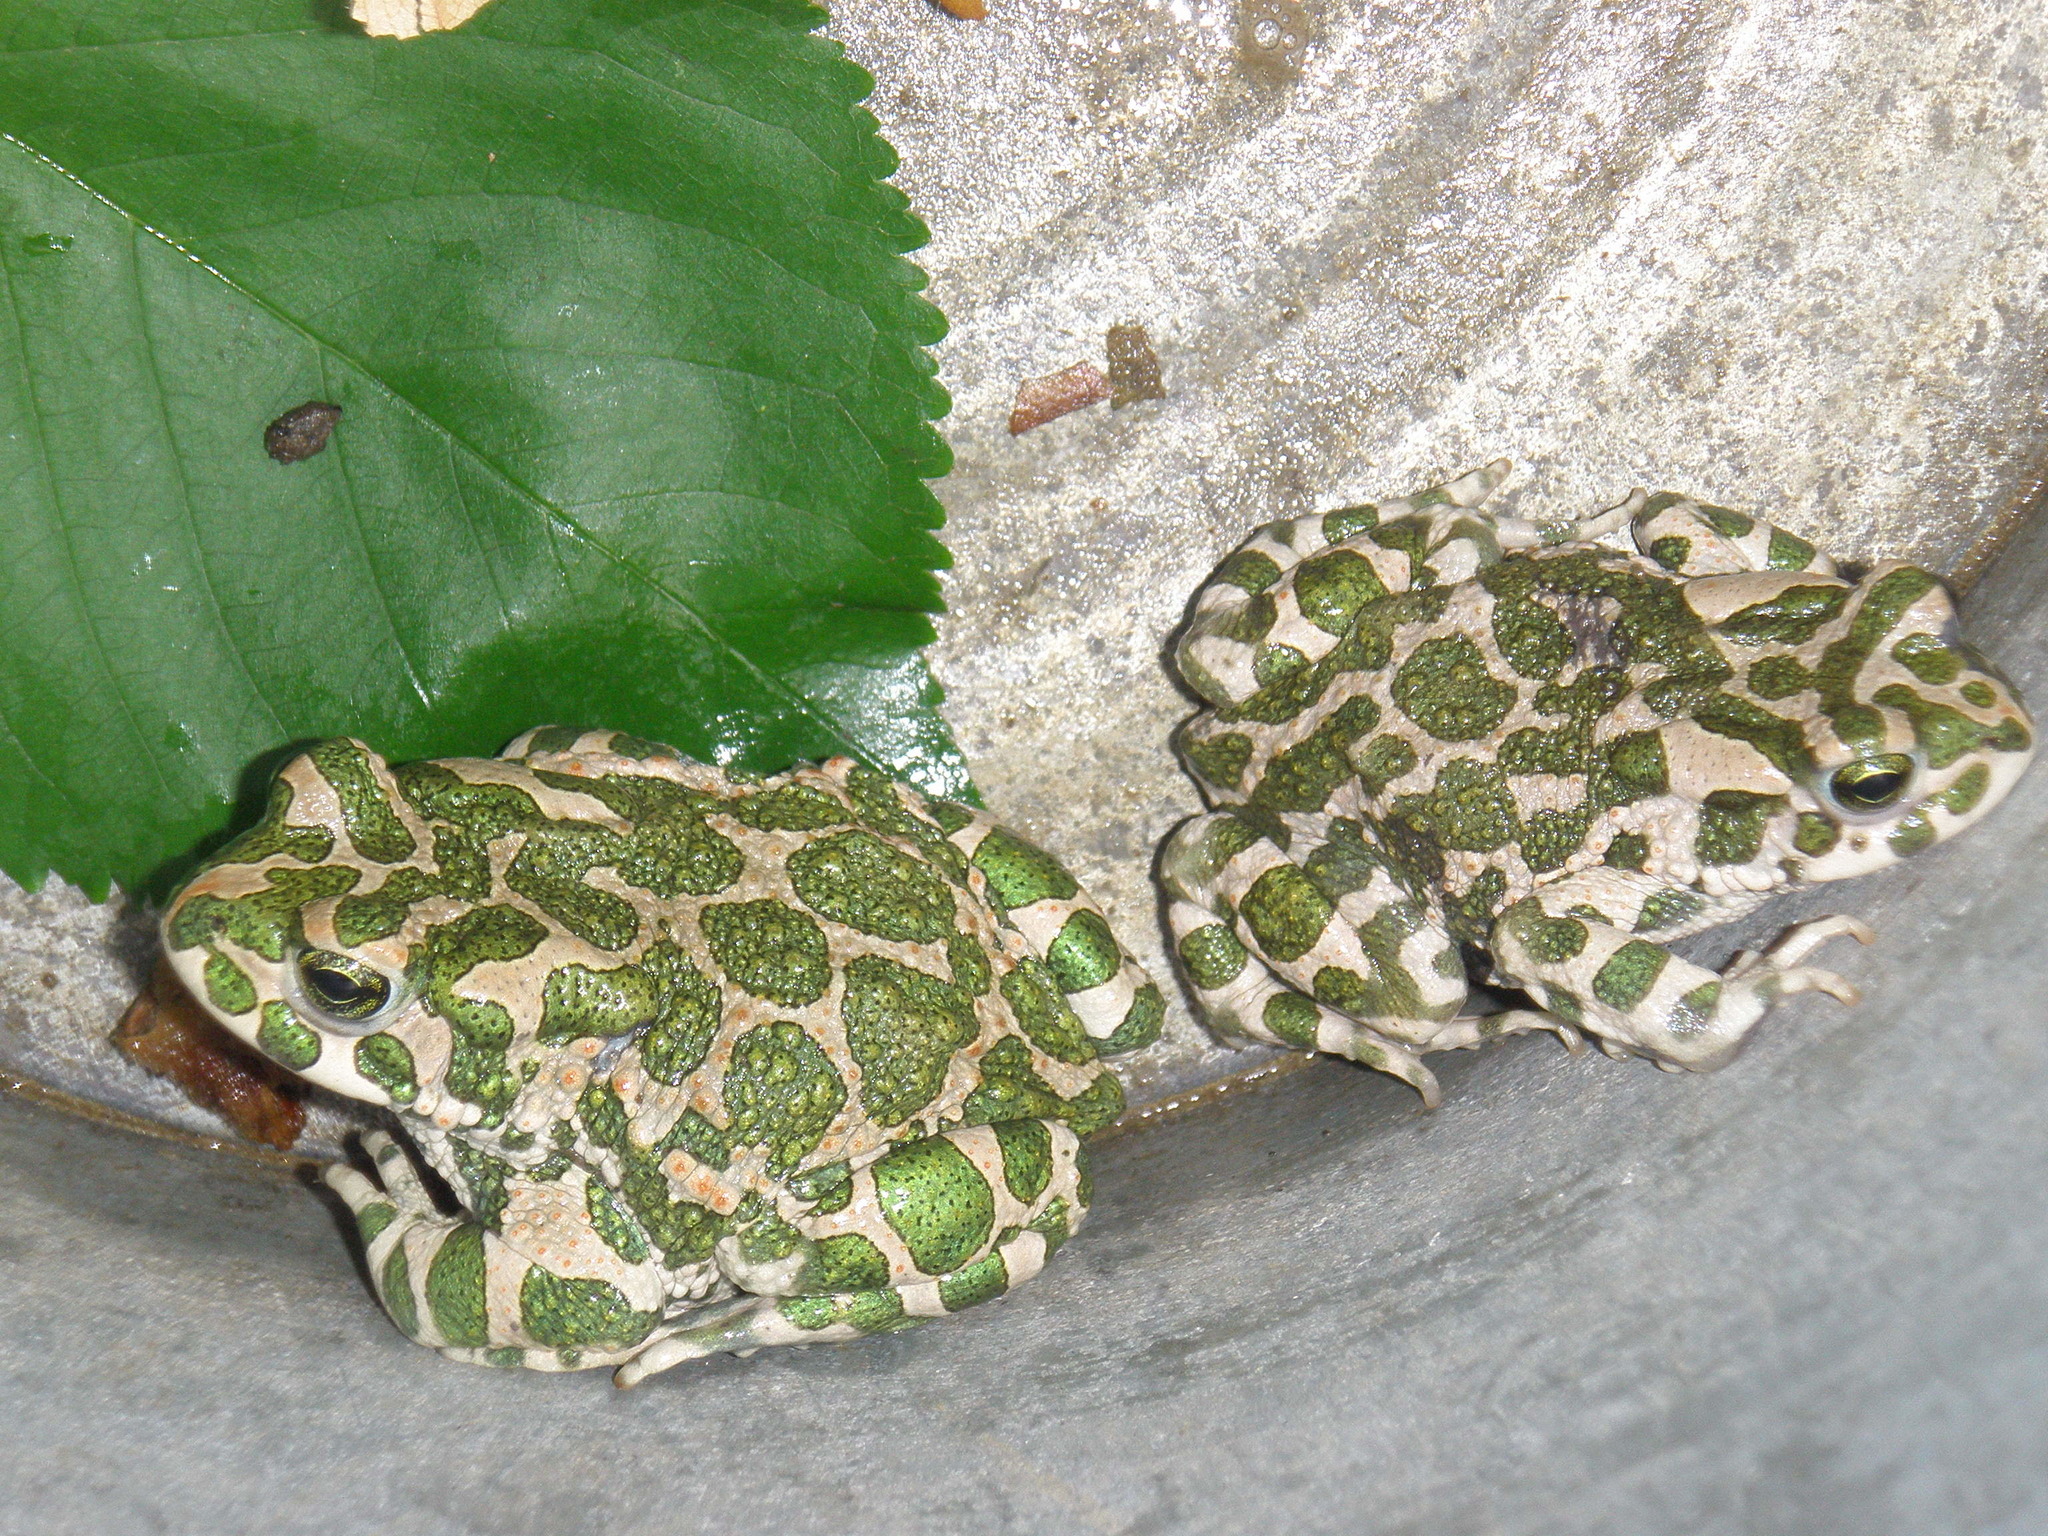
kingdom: Animalia
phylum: Chordata
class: Amphibia
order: Anura
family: Bufonidae
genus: Bufotes
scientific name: Bufotes viridis
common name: European green toad
